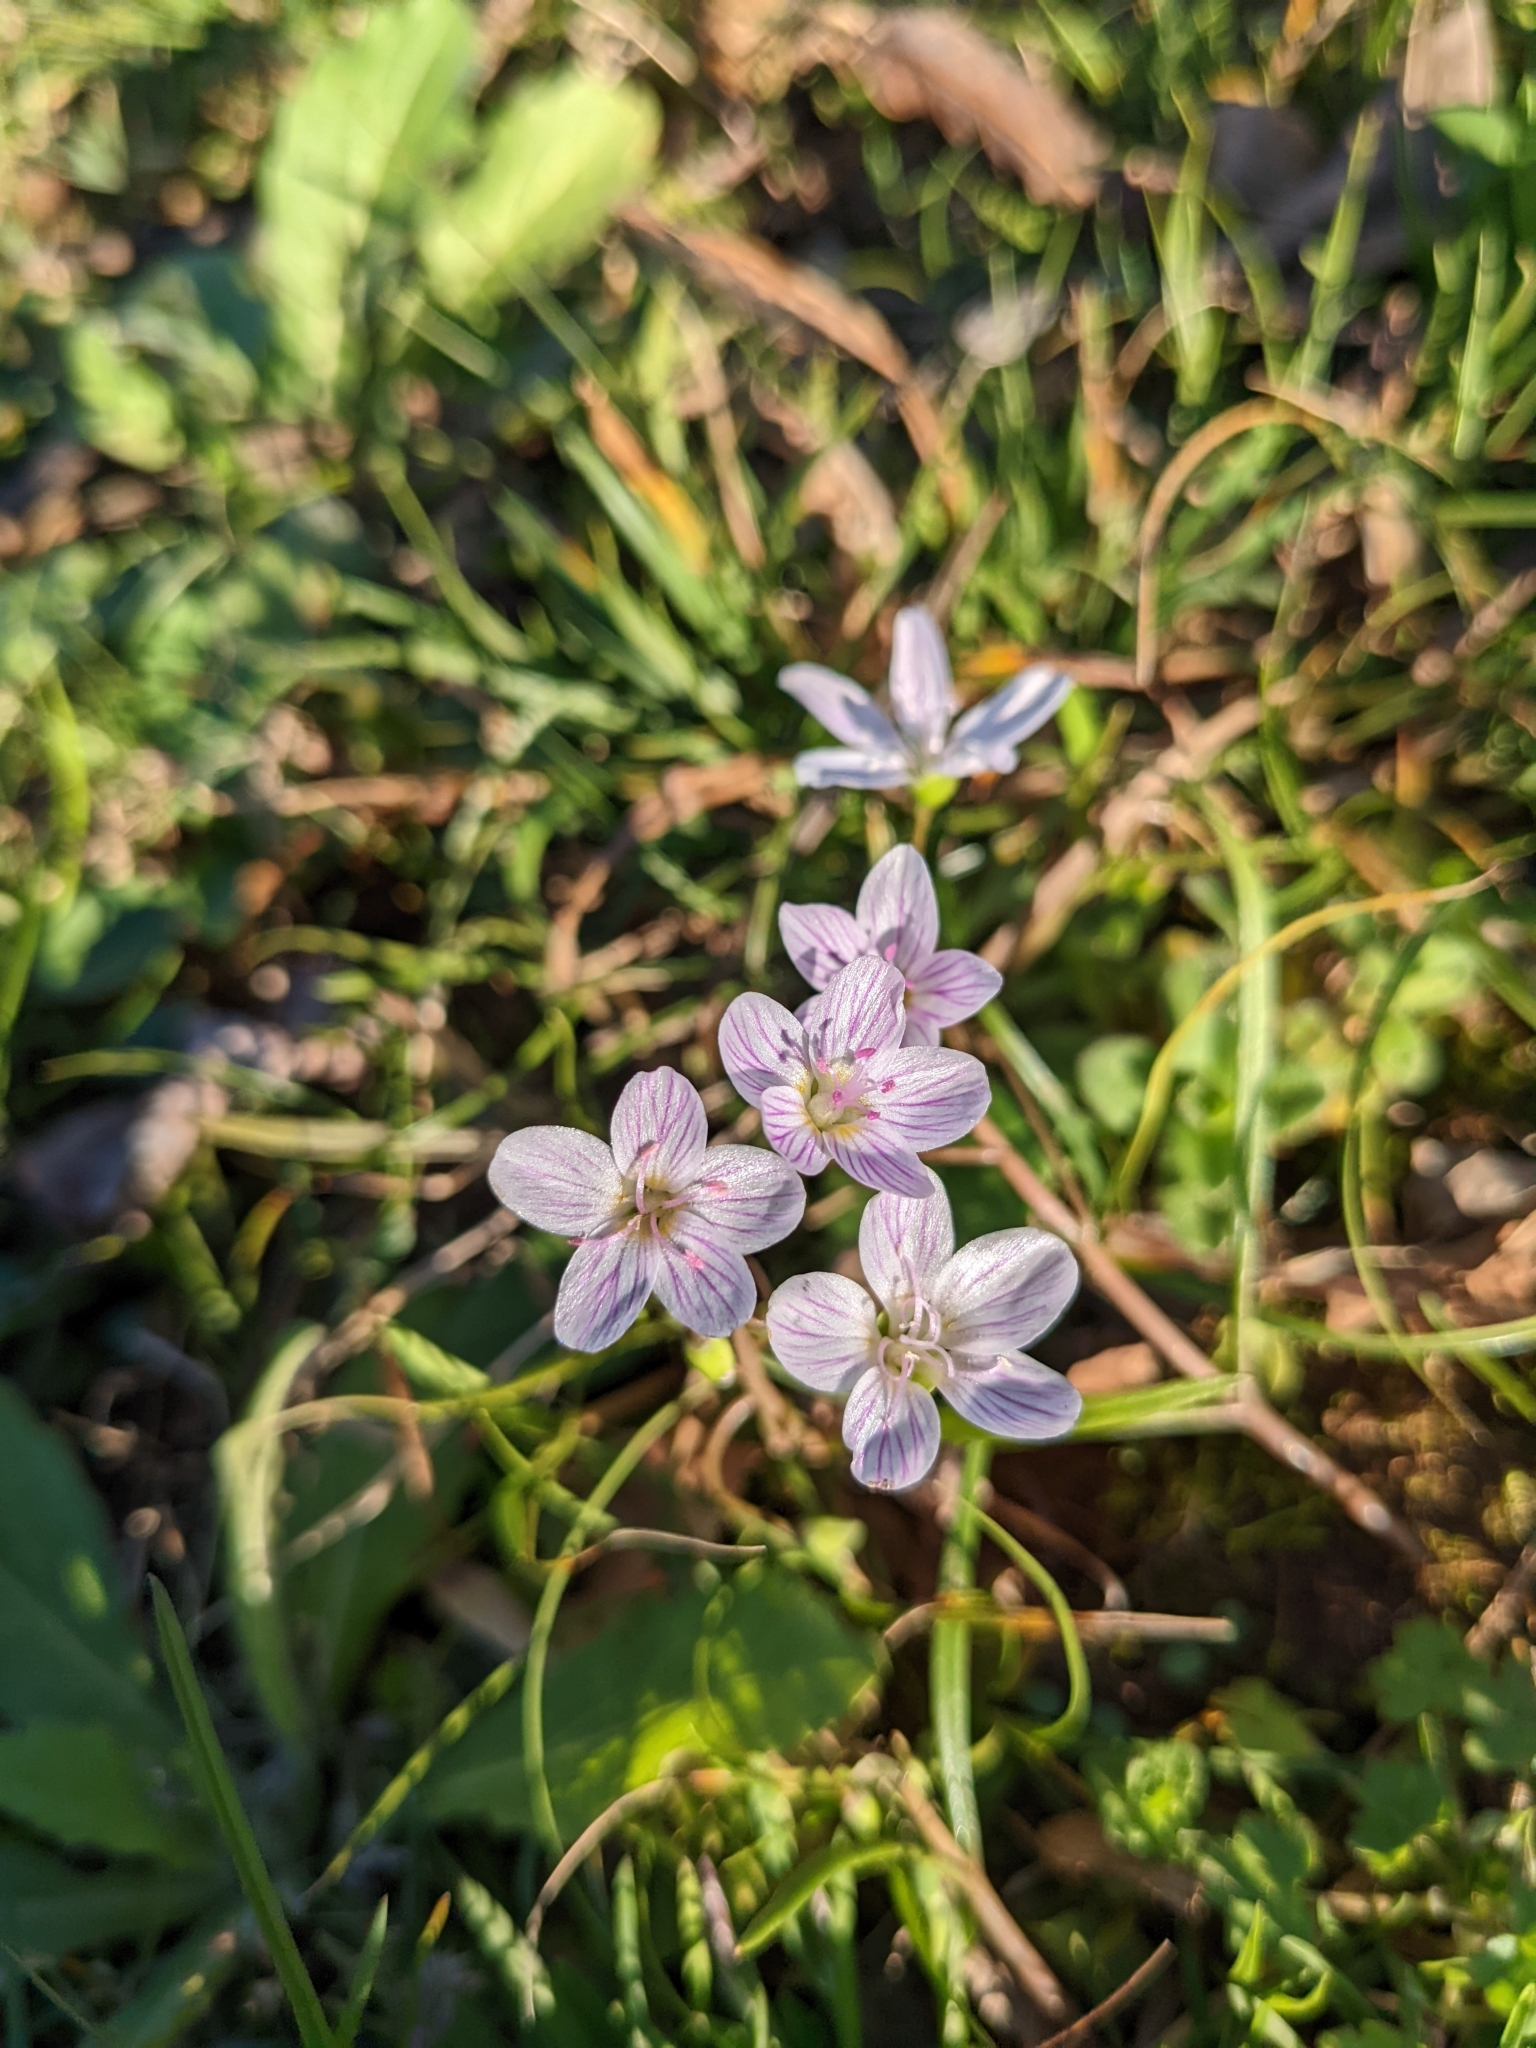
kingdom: Plantae
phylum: Tracheophyta
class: Magnoliopsida
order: Caryophyllales
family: Montiaceae
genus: Claytonia
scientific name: Claytonia virginica
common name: Virginia springbeauty
